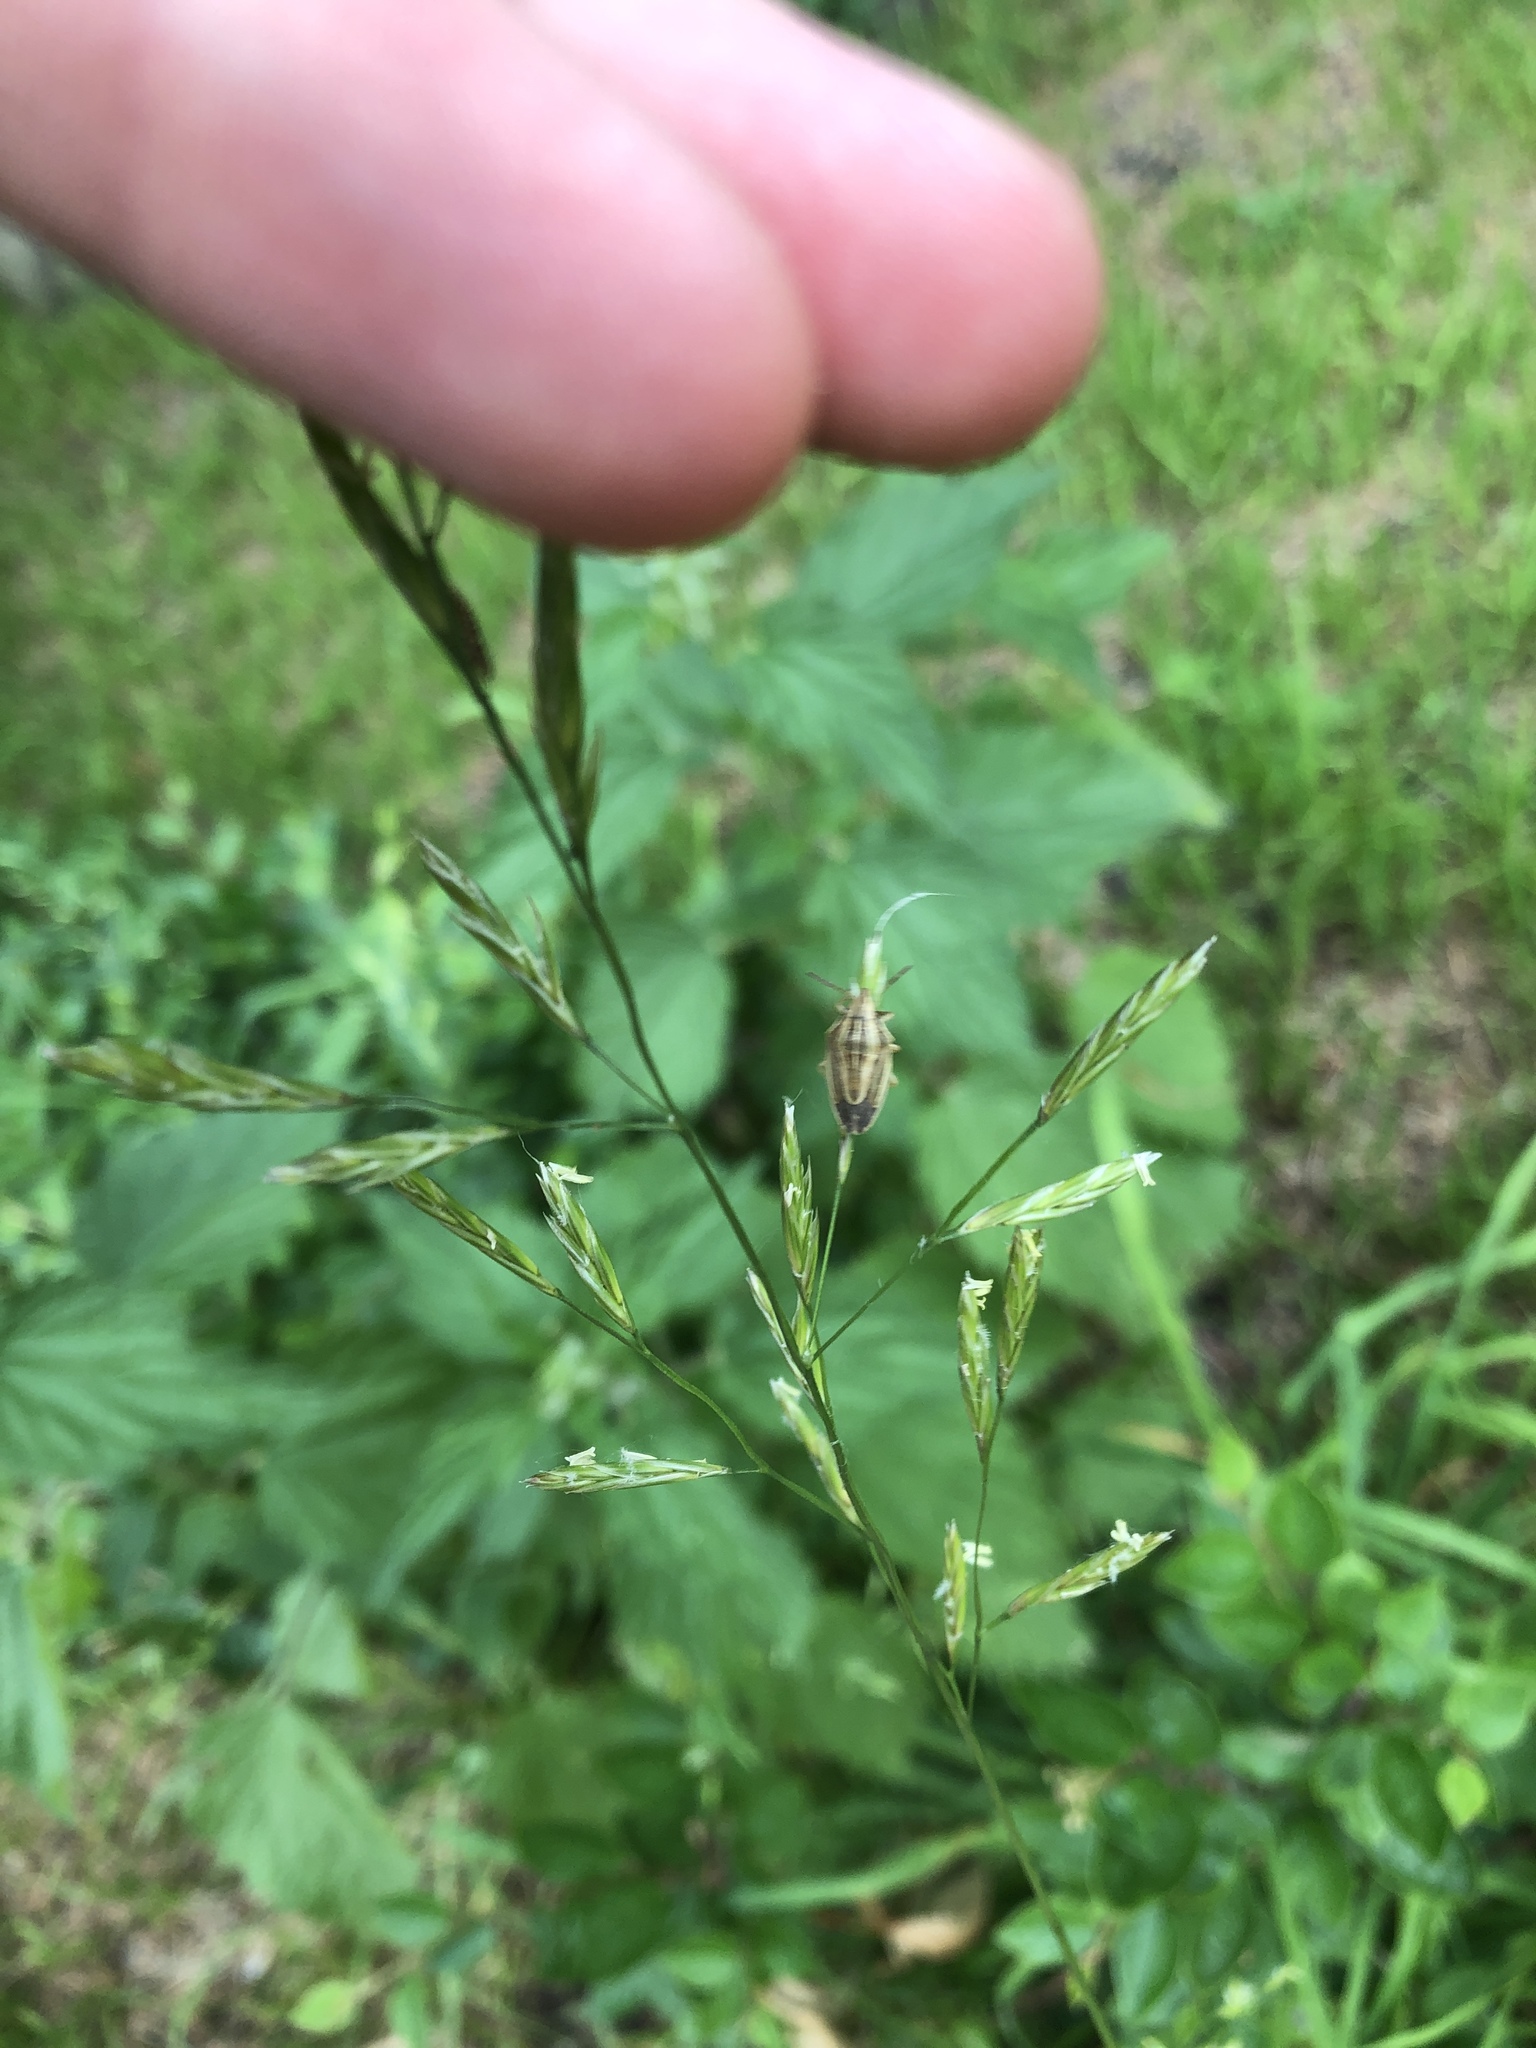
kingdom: Plantae
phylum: Tracheophyta
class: Liliopsida
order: Poales
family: Poaceae
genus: Lolium
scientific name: Lolium pratense
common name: Dover grass
